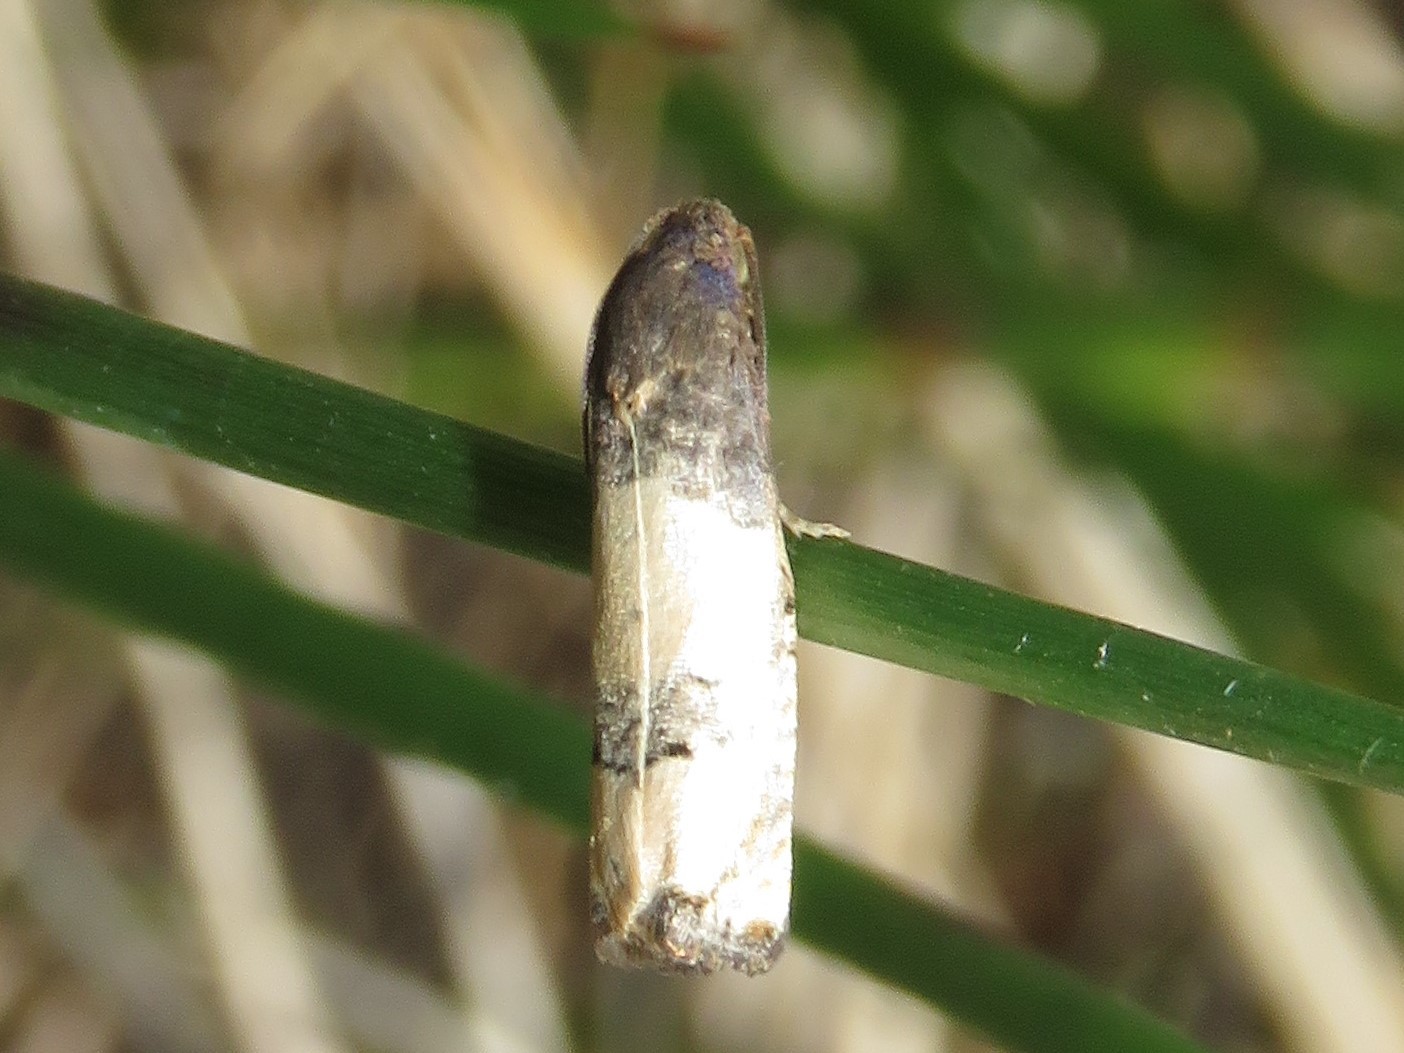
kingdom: Animalia
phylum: Arthropoda
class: Insecta
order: Lepidoptera
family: Tortricidae
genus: Epiblema
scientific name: Epiblema desertana
